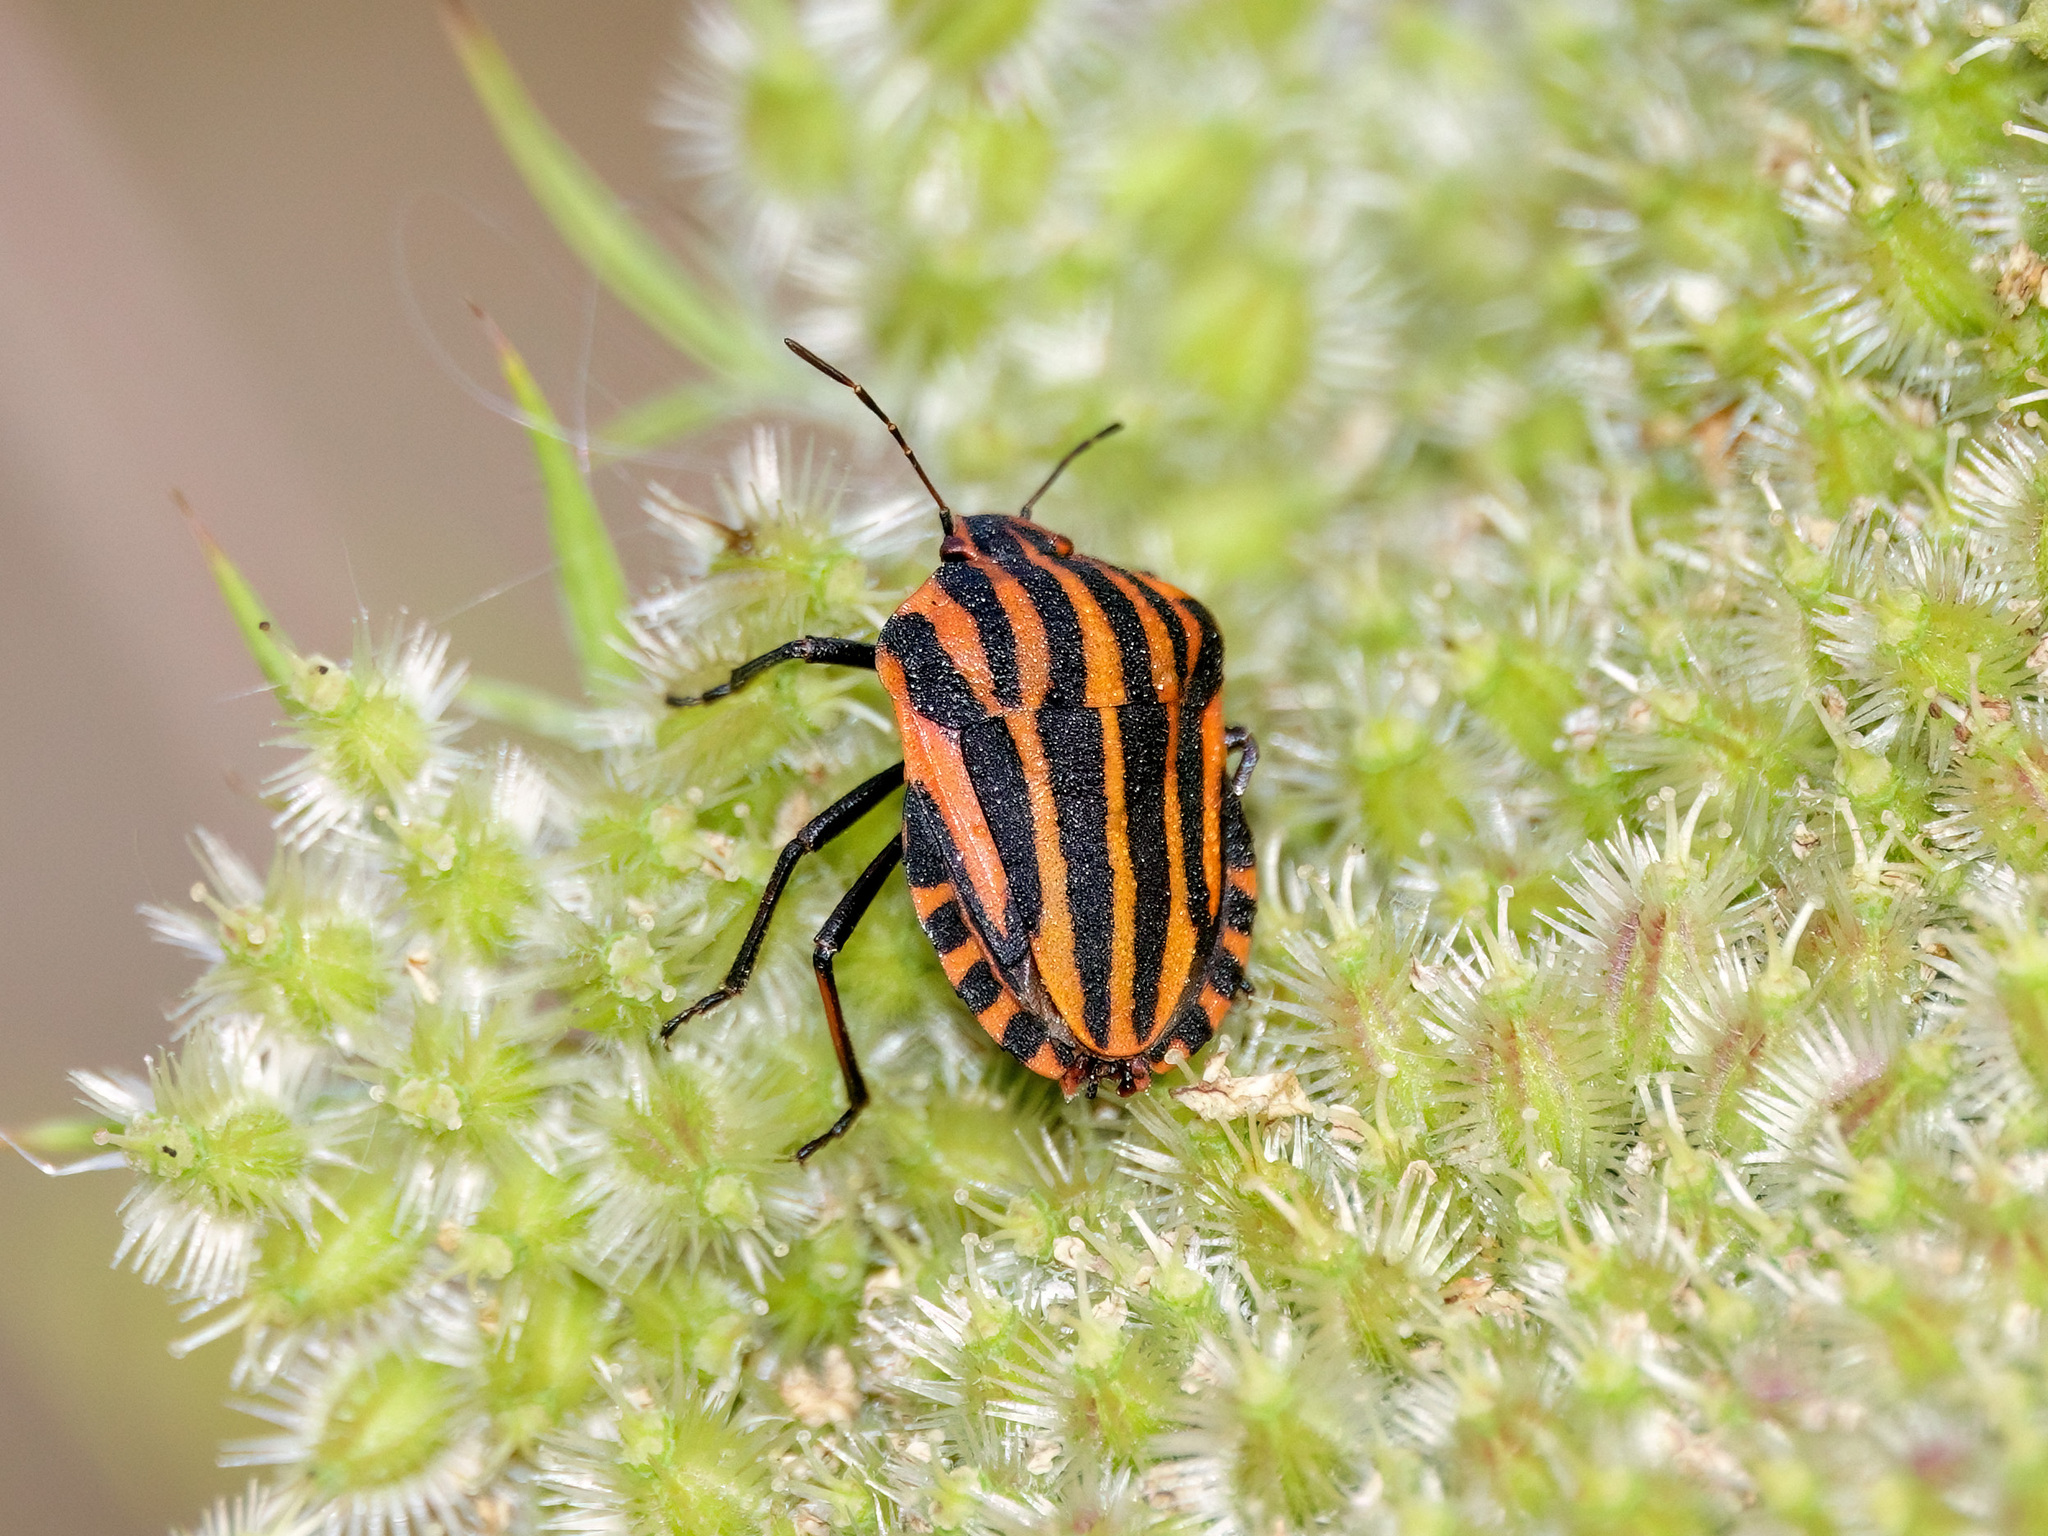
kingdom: Animalia
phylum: Arthropoda
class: Insecta
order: Hemiptera
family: Pentatomidae
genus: Graphosoma
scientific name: Graphosoma italicum
